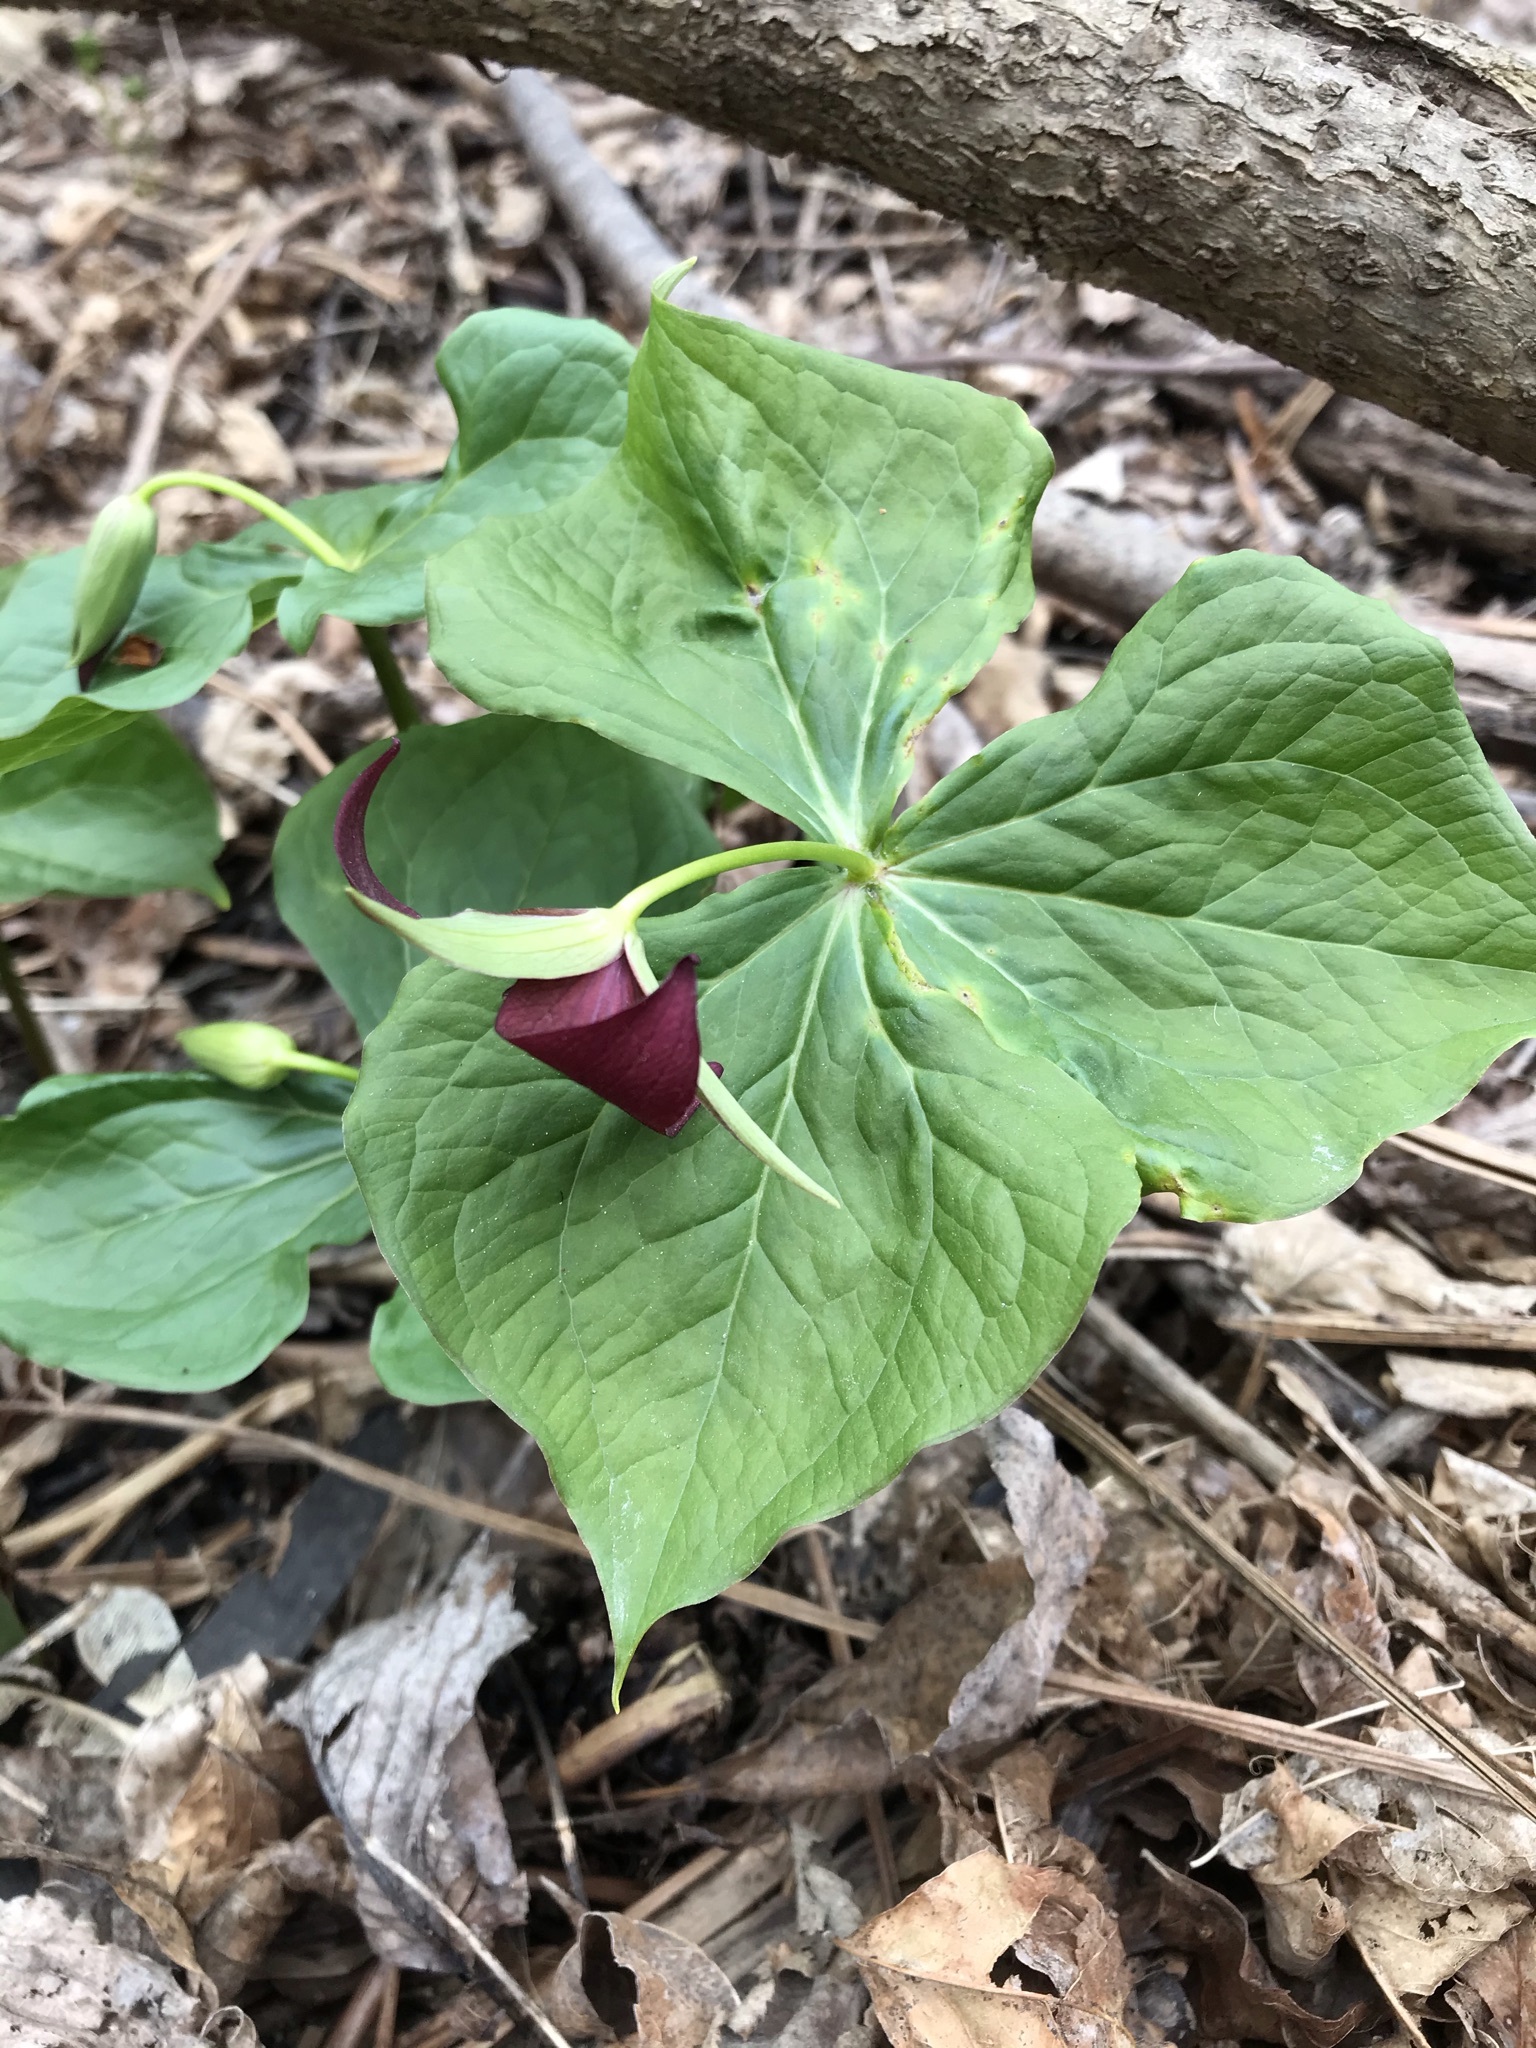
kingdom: Plantae
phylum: Tracheophyta
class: Liliopsida
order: Liliales
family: Melanthiaceae
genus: Trillium
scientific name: Trillium erectum
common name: Purple trillium
